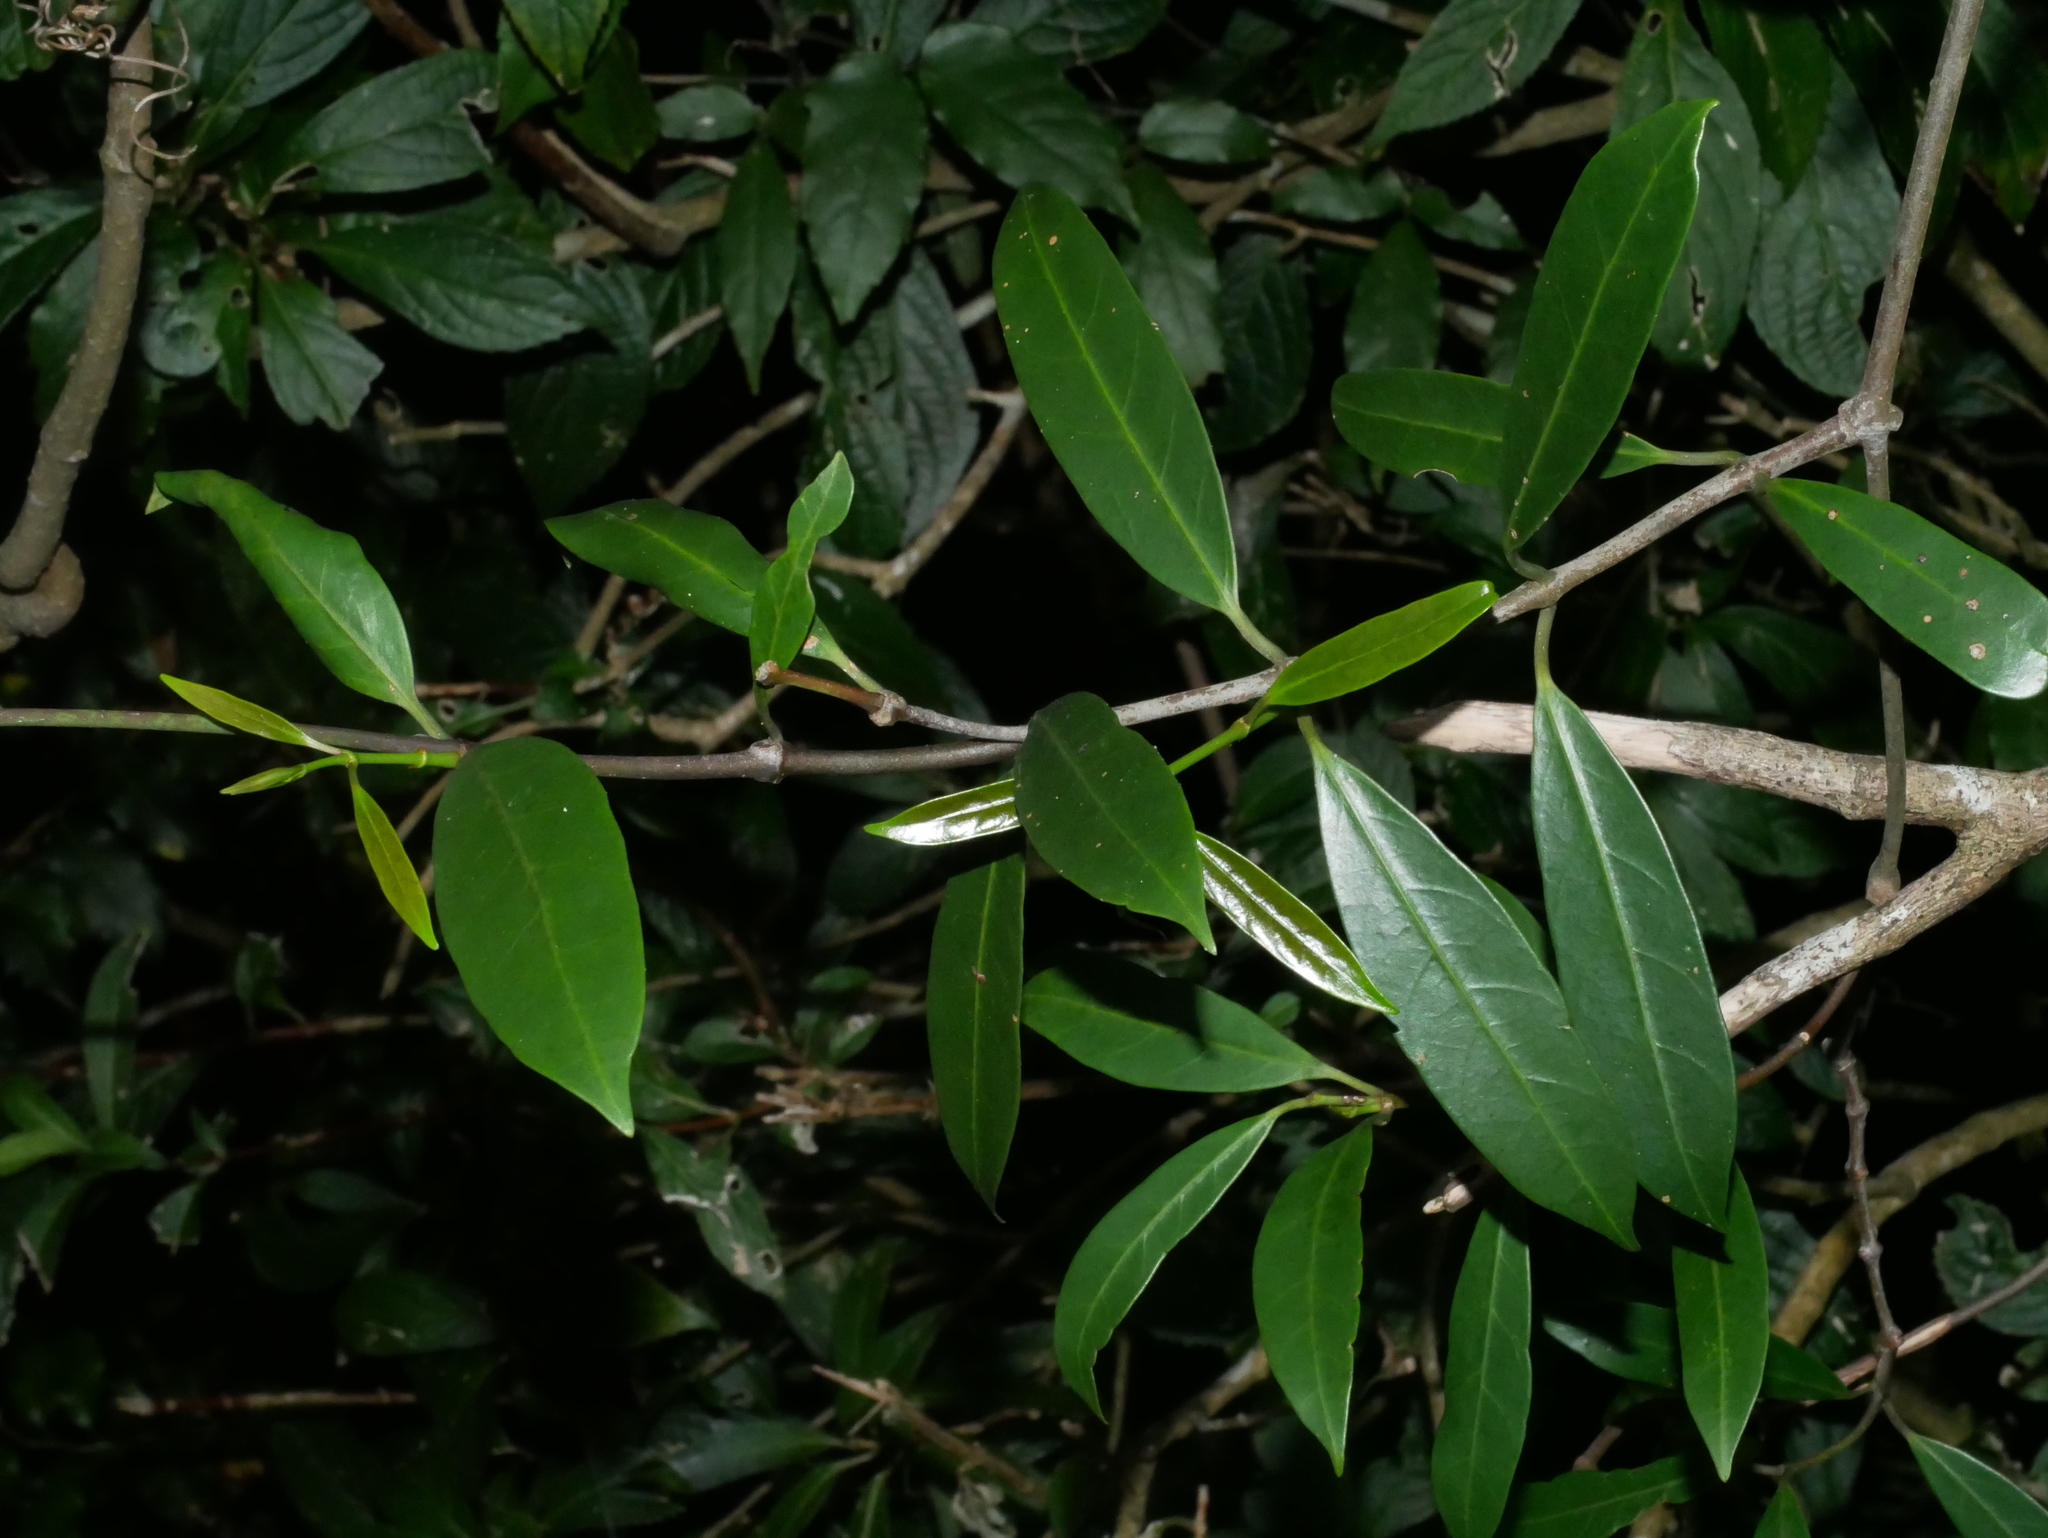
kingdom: Plantae
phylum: Tracheophyta
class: Magnoliopsida
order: Gentianales
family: Apocynaceae
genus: Anodendron
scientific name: Anodendron affine
